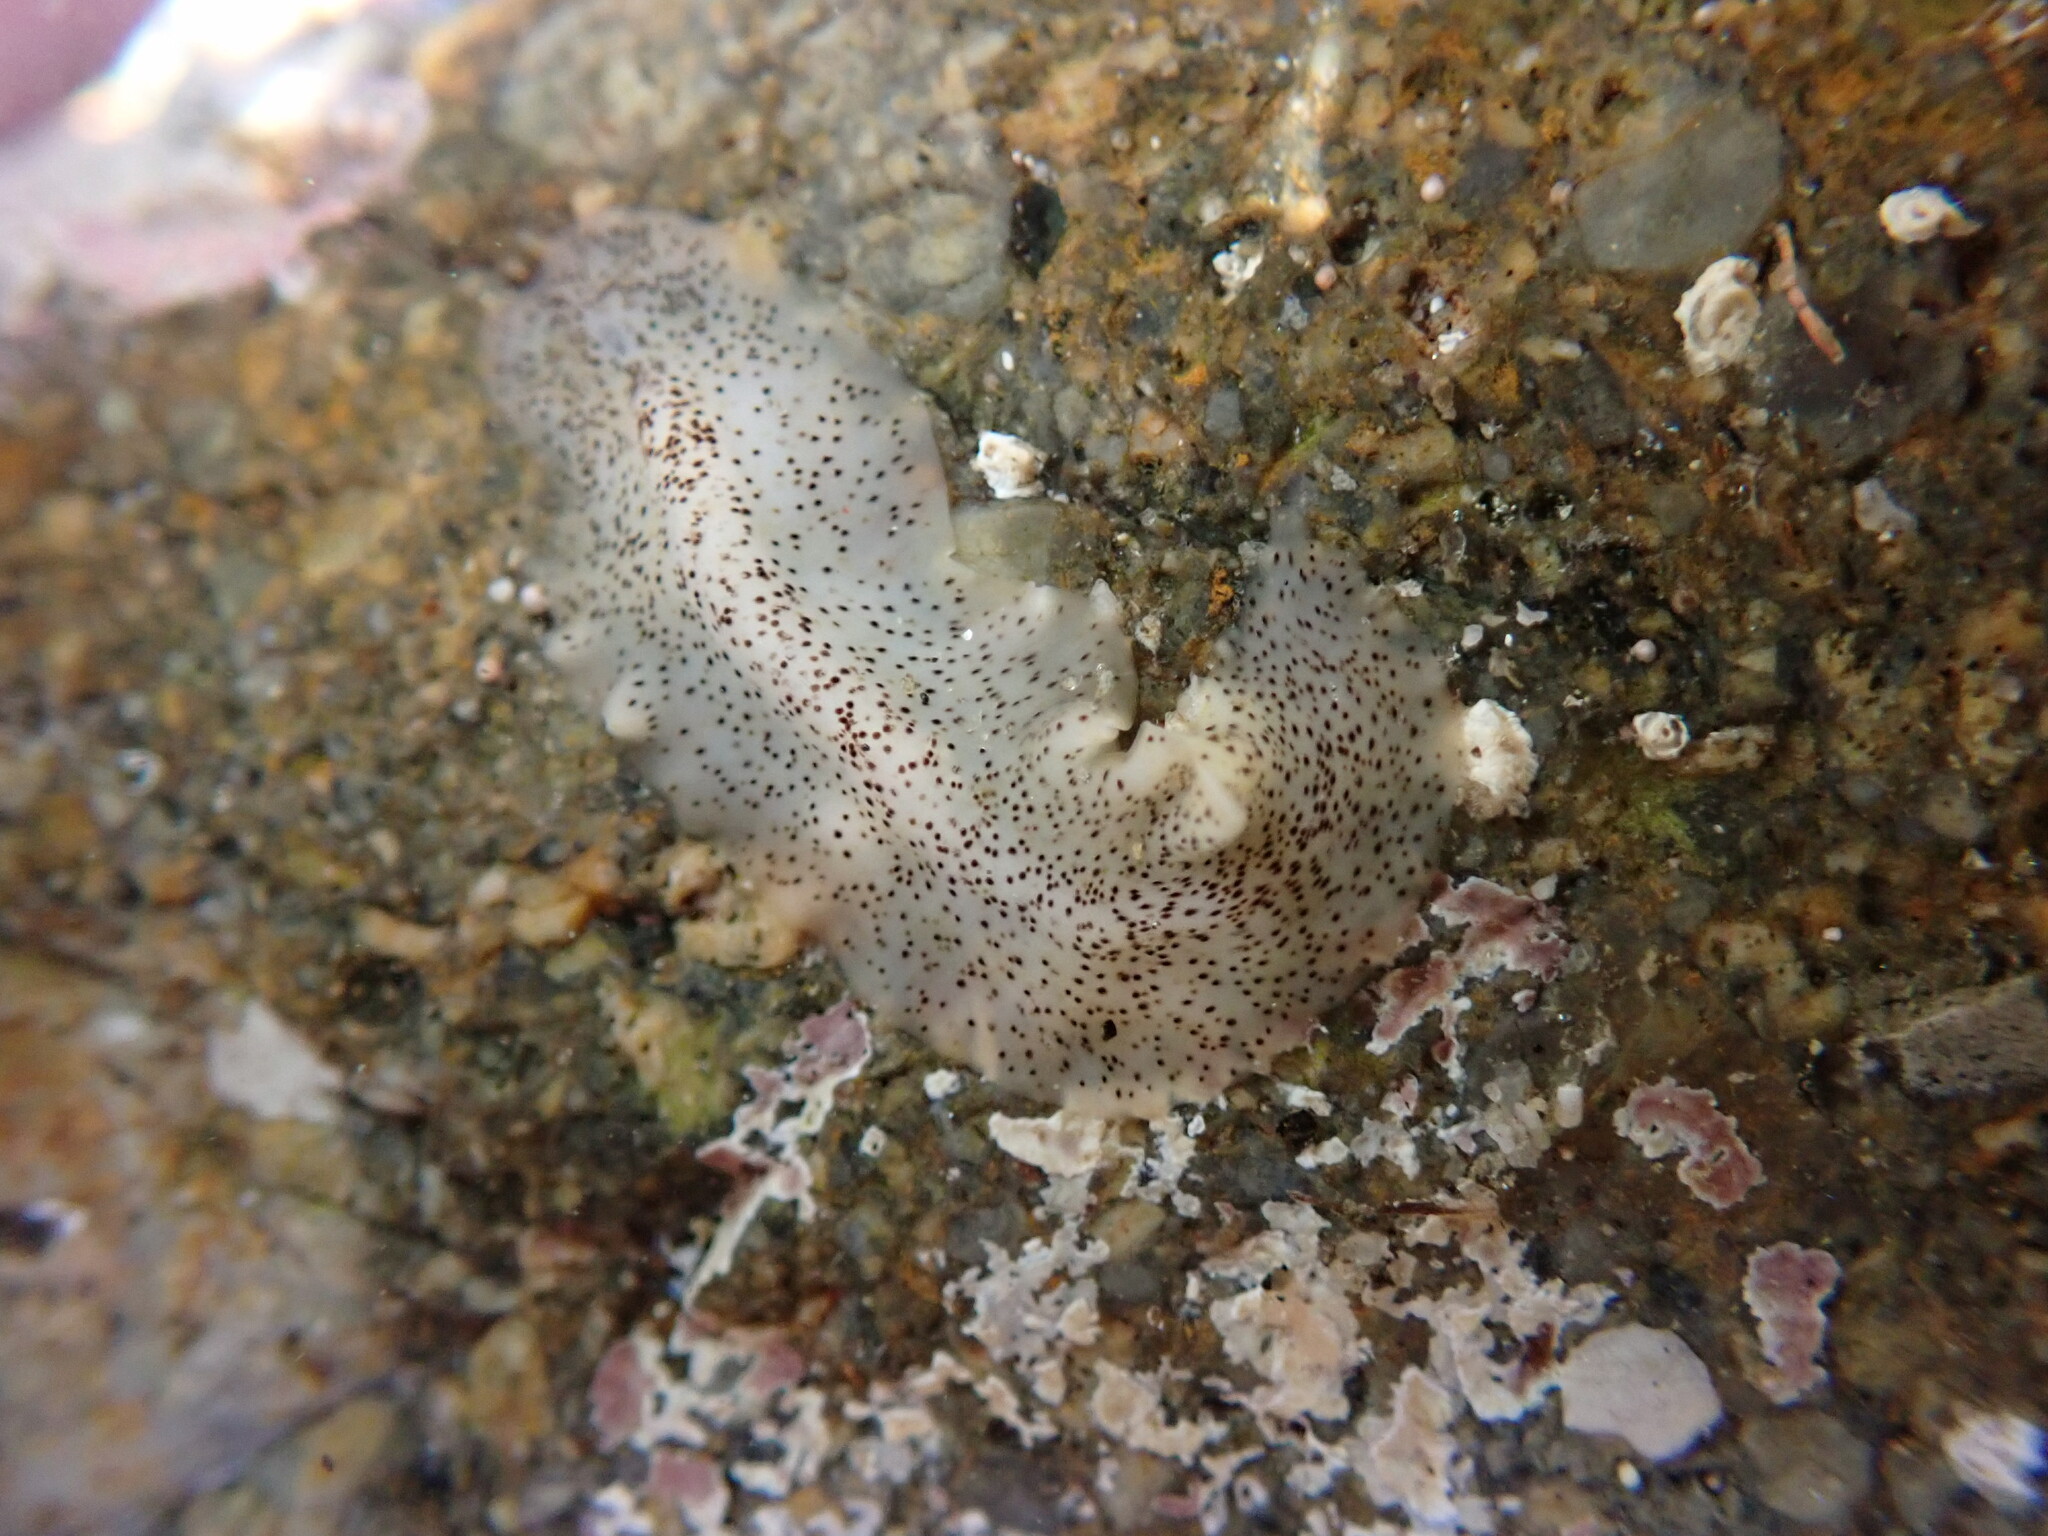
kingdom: Animalia
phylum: Platyhelminthes
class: Turbellaria
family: Prosthiostomidae
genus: Enchiridium
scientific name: Enchiridium punctatum
